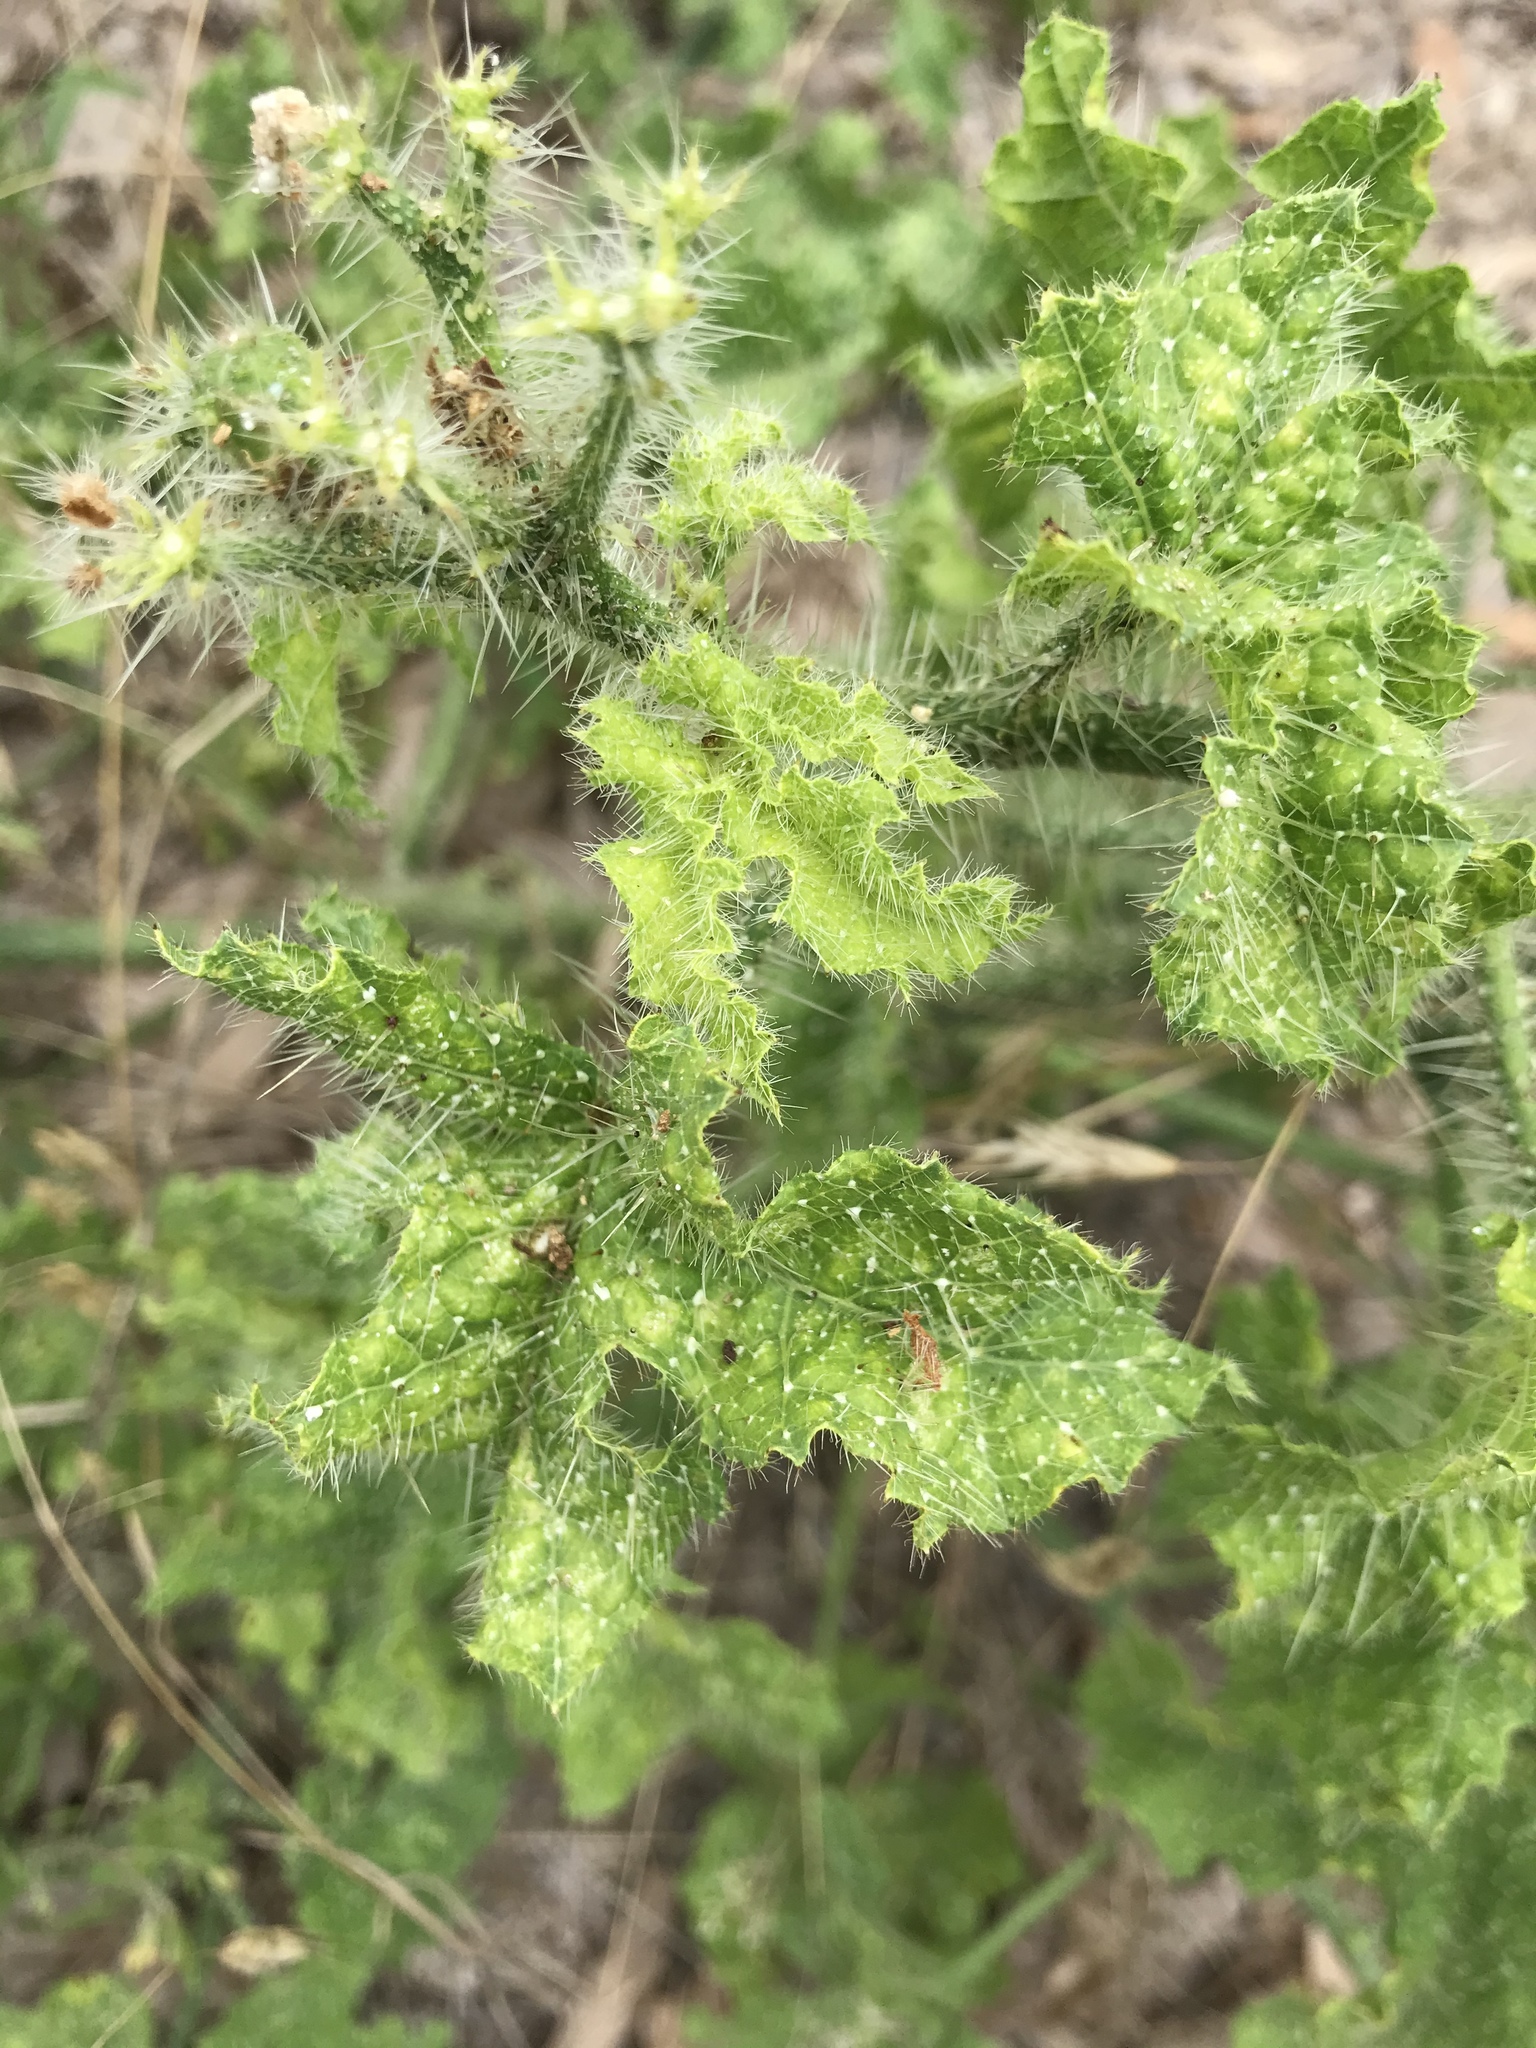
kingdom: Plantae
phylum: Tracheophyta
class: Magnoliopsida
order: Malpighiales
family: Euphorbiaceae
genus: Cnidoscolus
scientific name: Cnidoscolus texanus
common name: Texas bull-nettle
